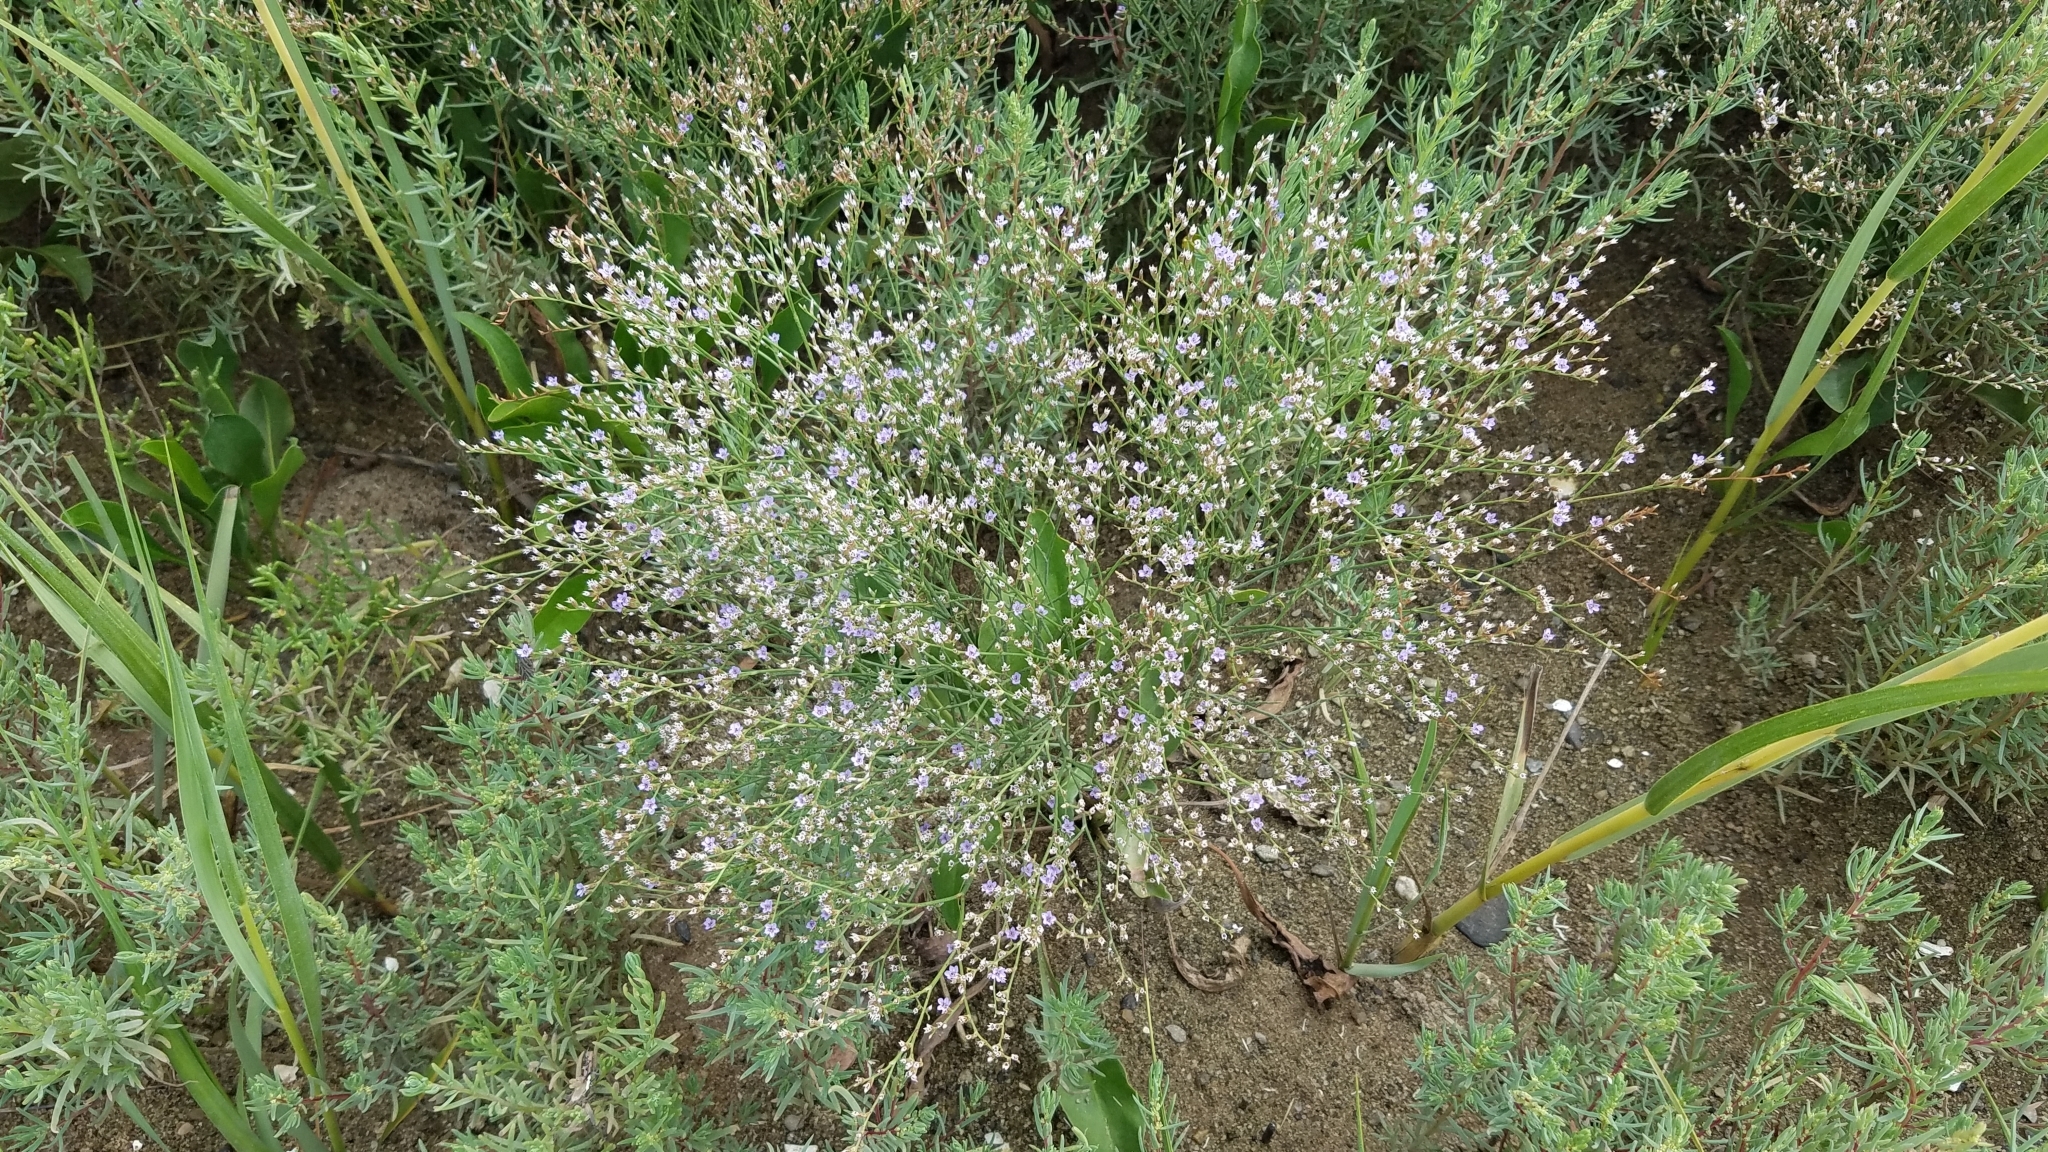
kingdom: Plantae
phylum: Tracheophyta
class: Magnoliopsida
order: Caryophyllales
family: Plumbaginaceae
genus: Limonium
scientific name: Limonium carolinianum
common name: Carolina sea lavender
